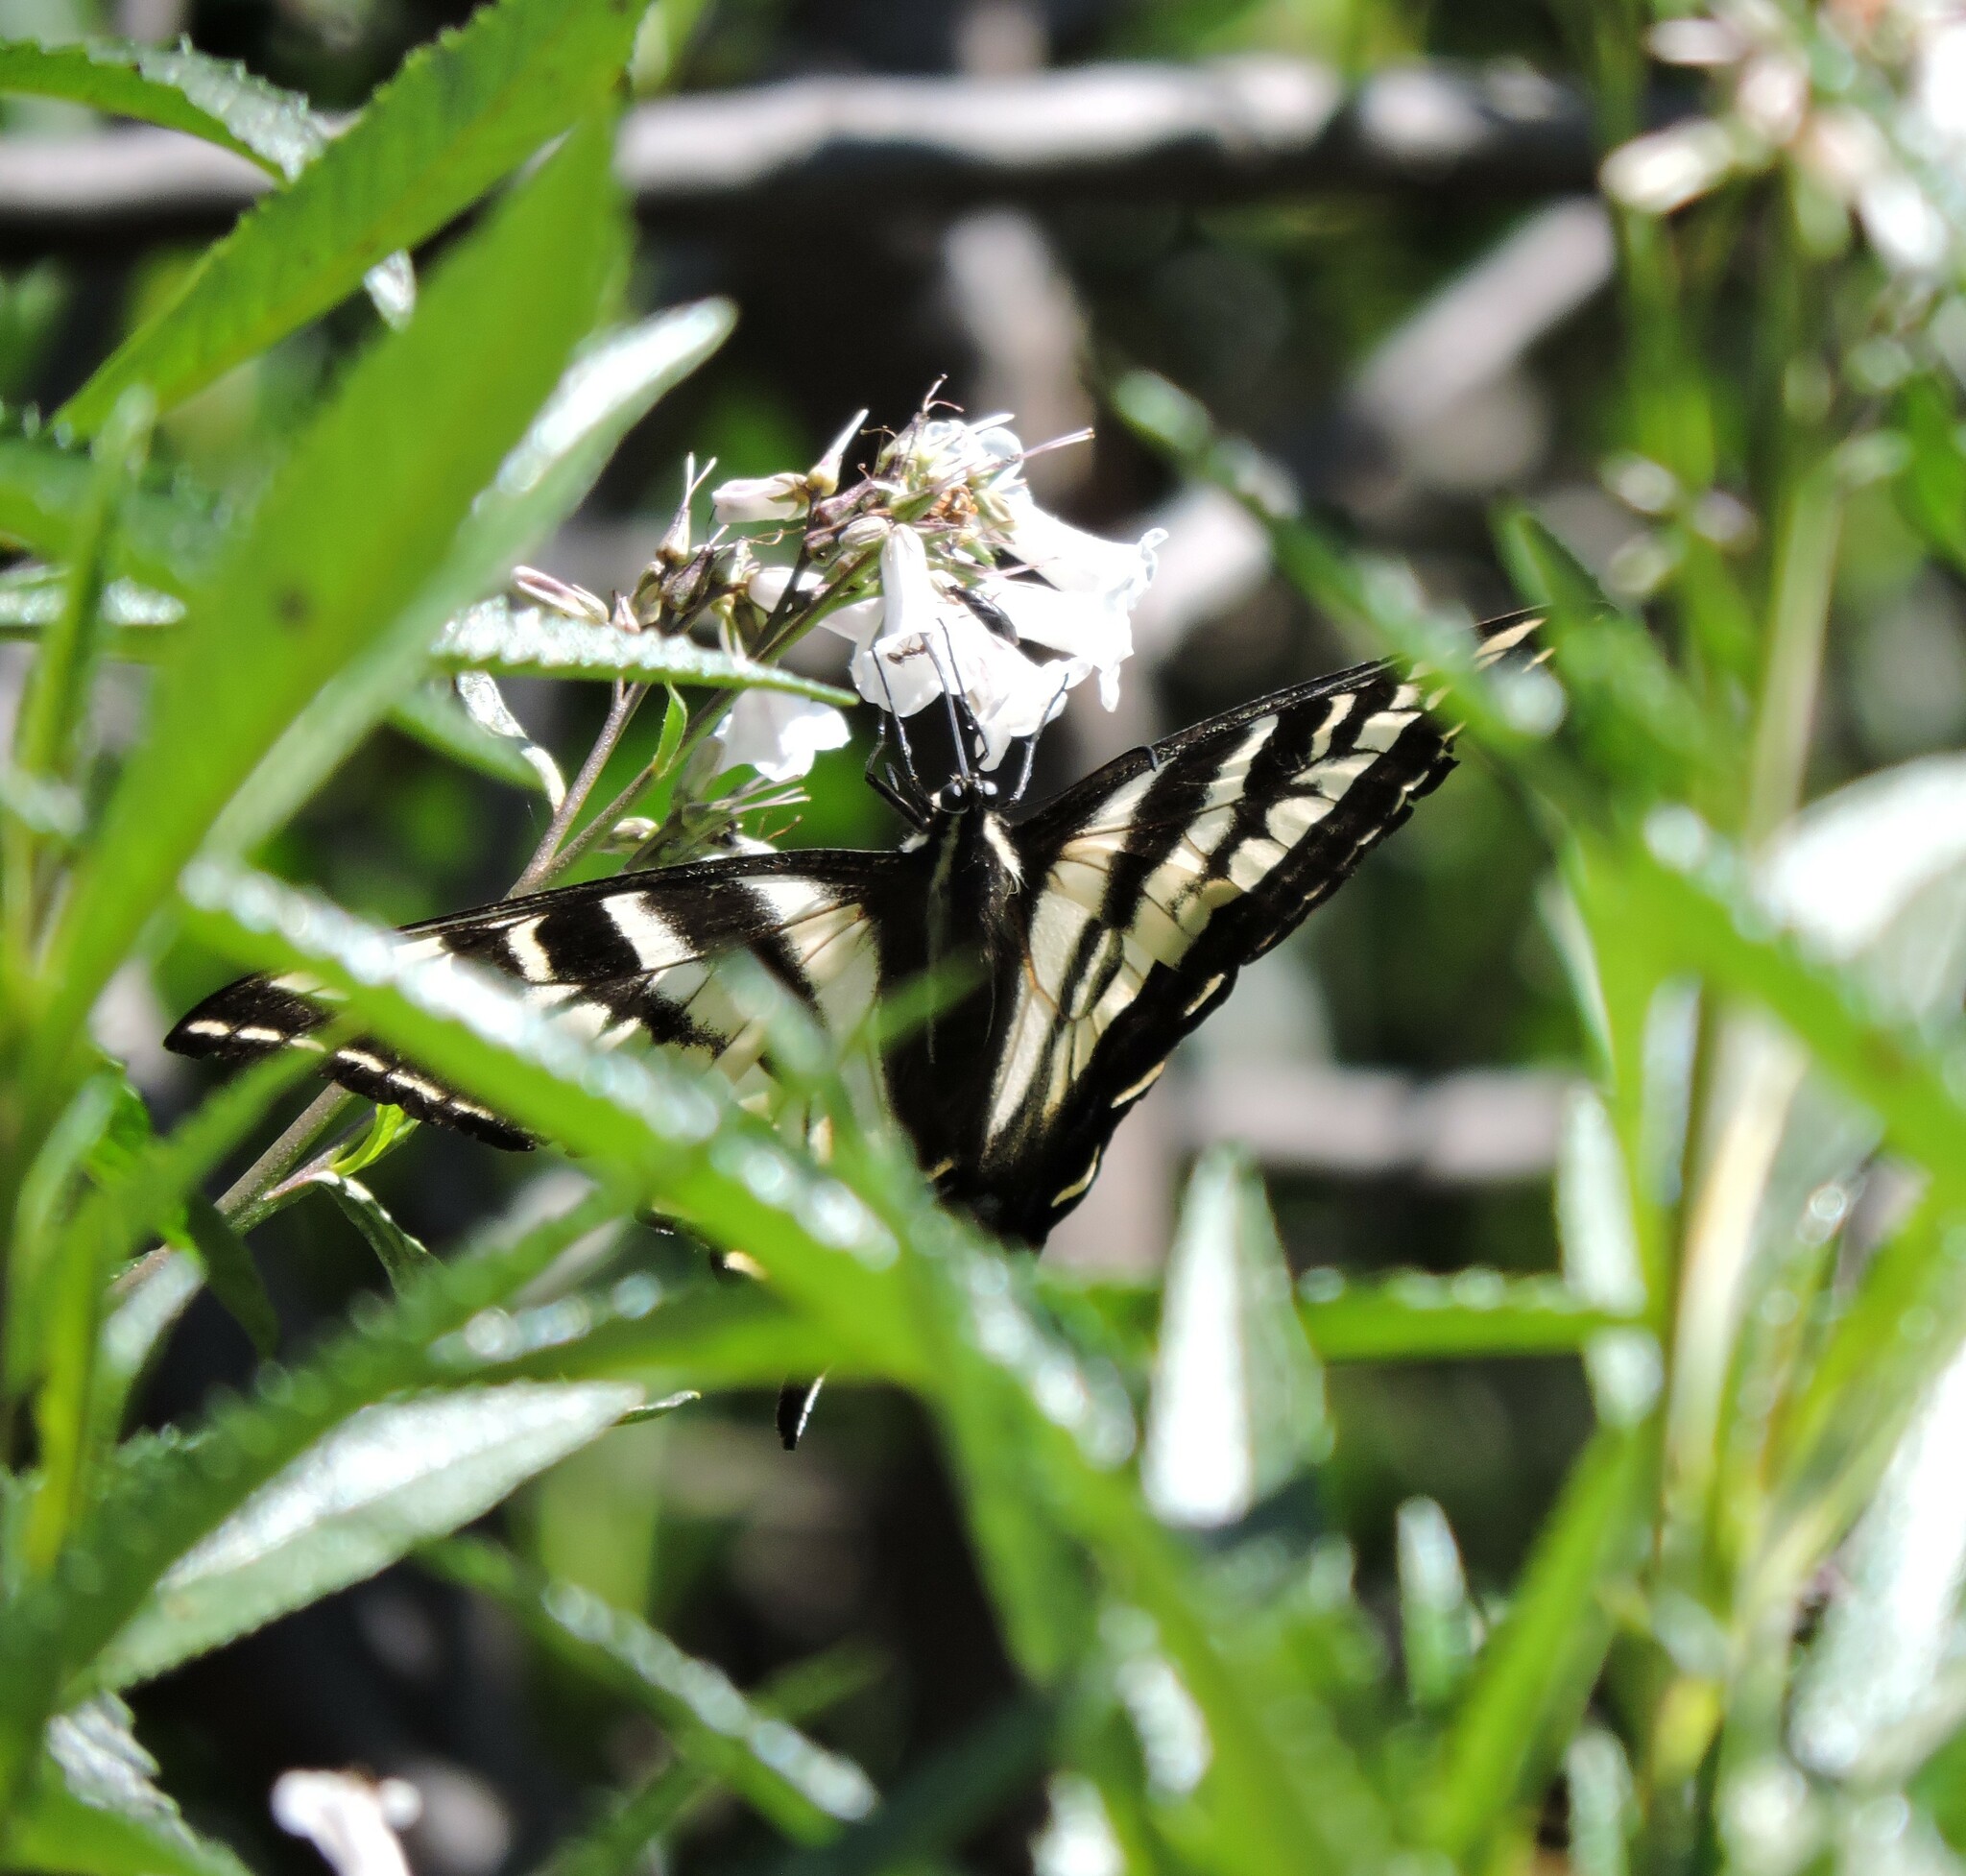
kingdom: Animalia
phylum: Arthropoda
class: Insecta
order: Lepidoptera
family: Papilionidae
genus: Papilio
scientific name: Papilio eurymedon
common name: Pale tiger swallowtail
